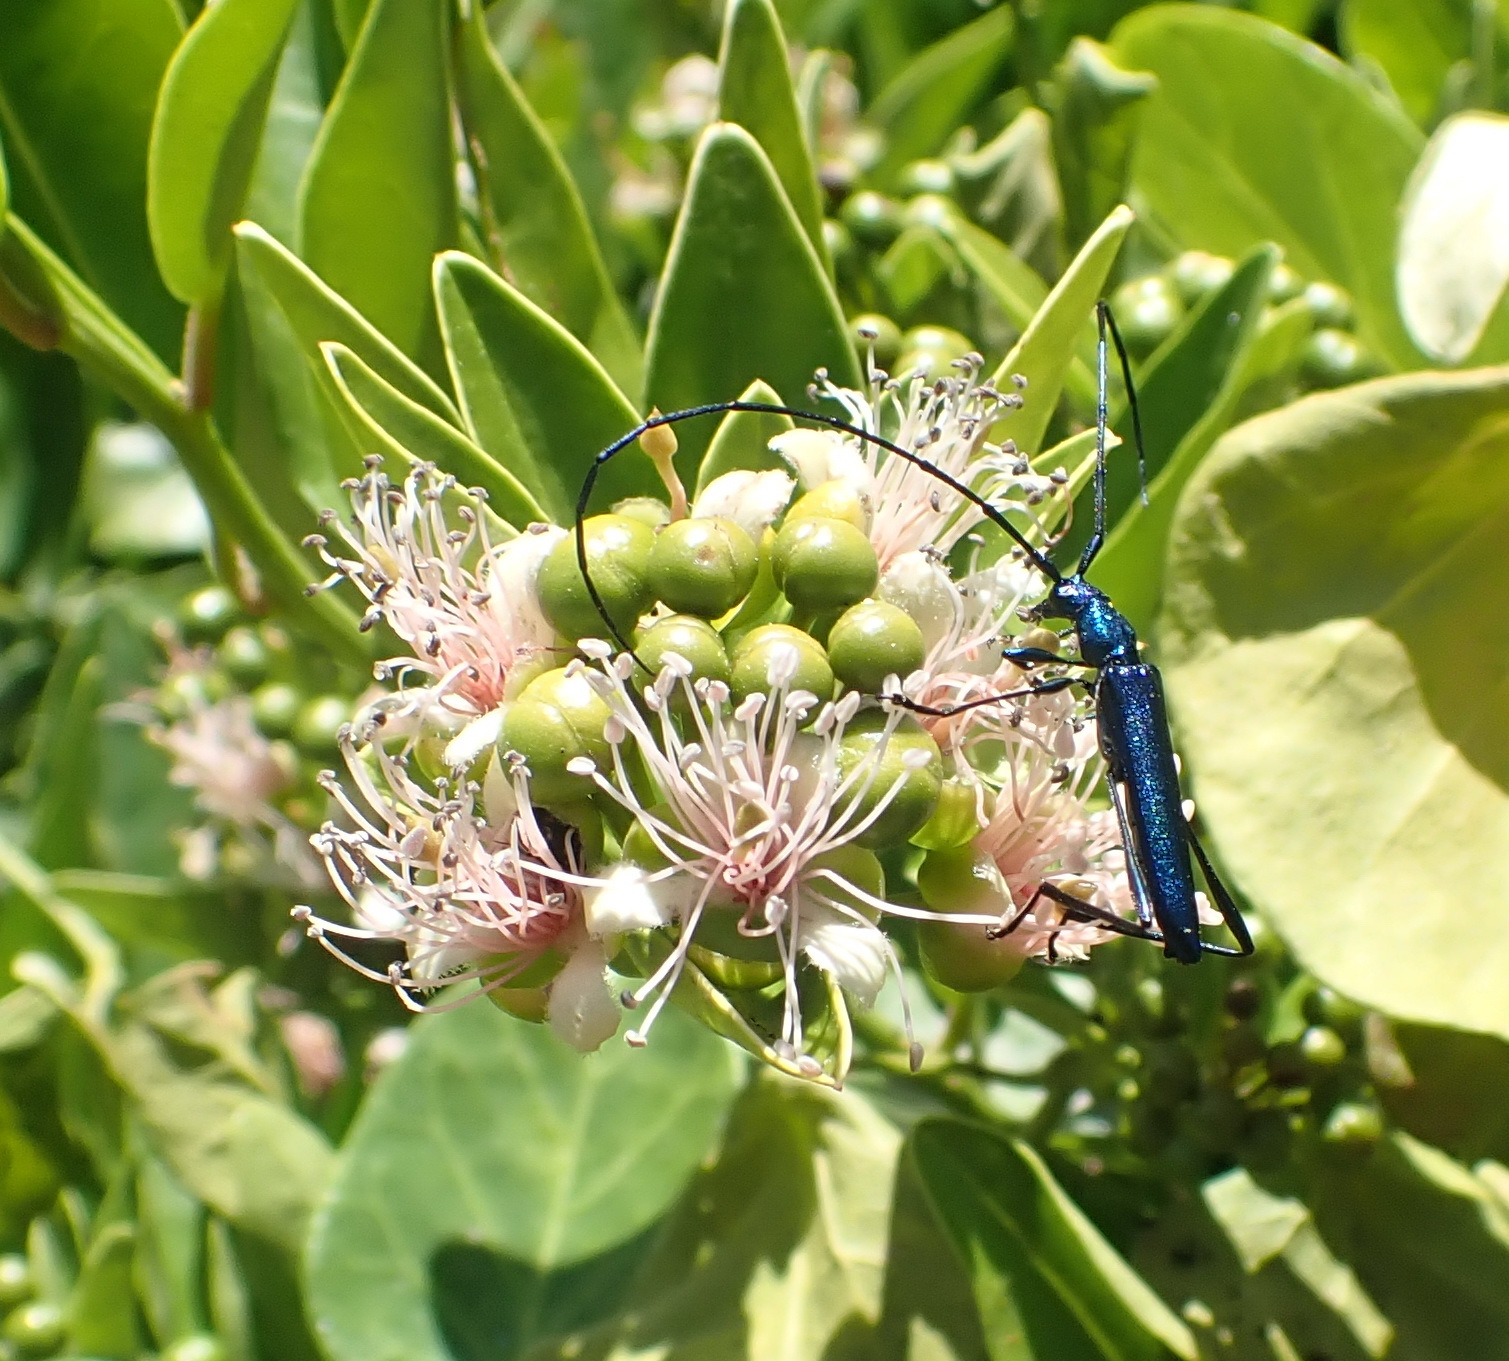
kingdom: Plantae
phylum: Tracheophyta
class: Magnoliopsida
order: Brassicales
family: Capparaceae
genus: Capparis
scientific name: Capparis sepiaria
